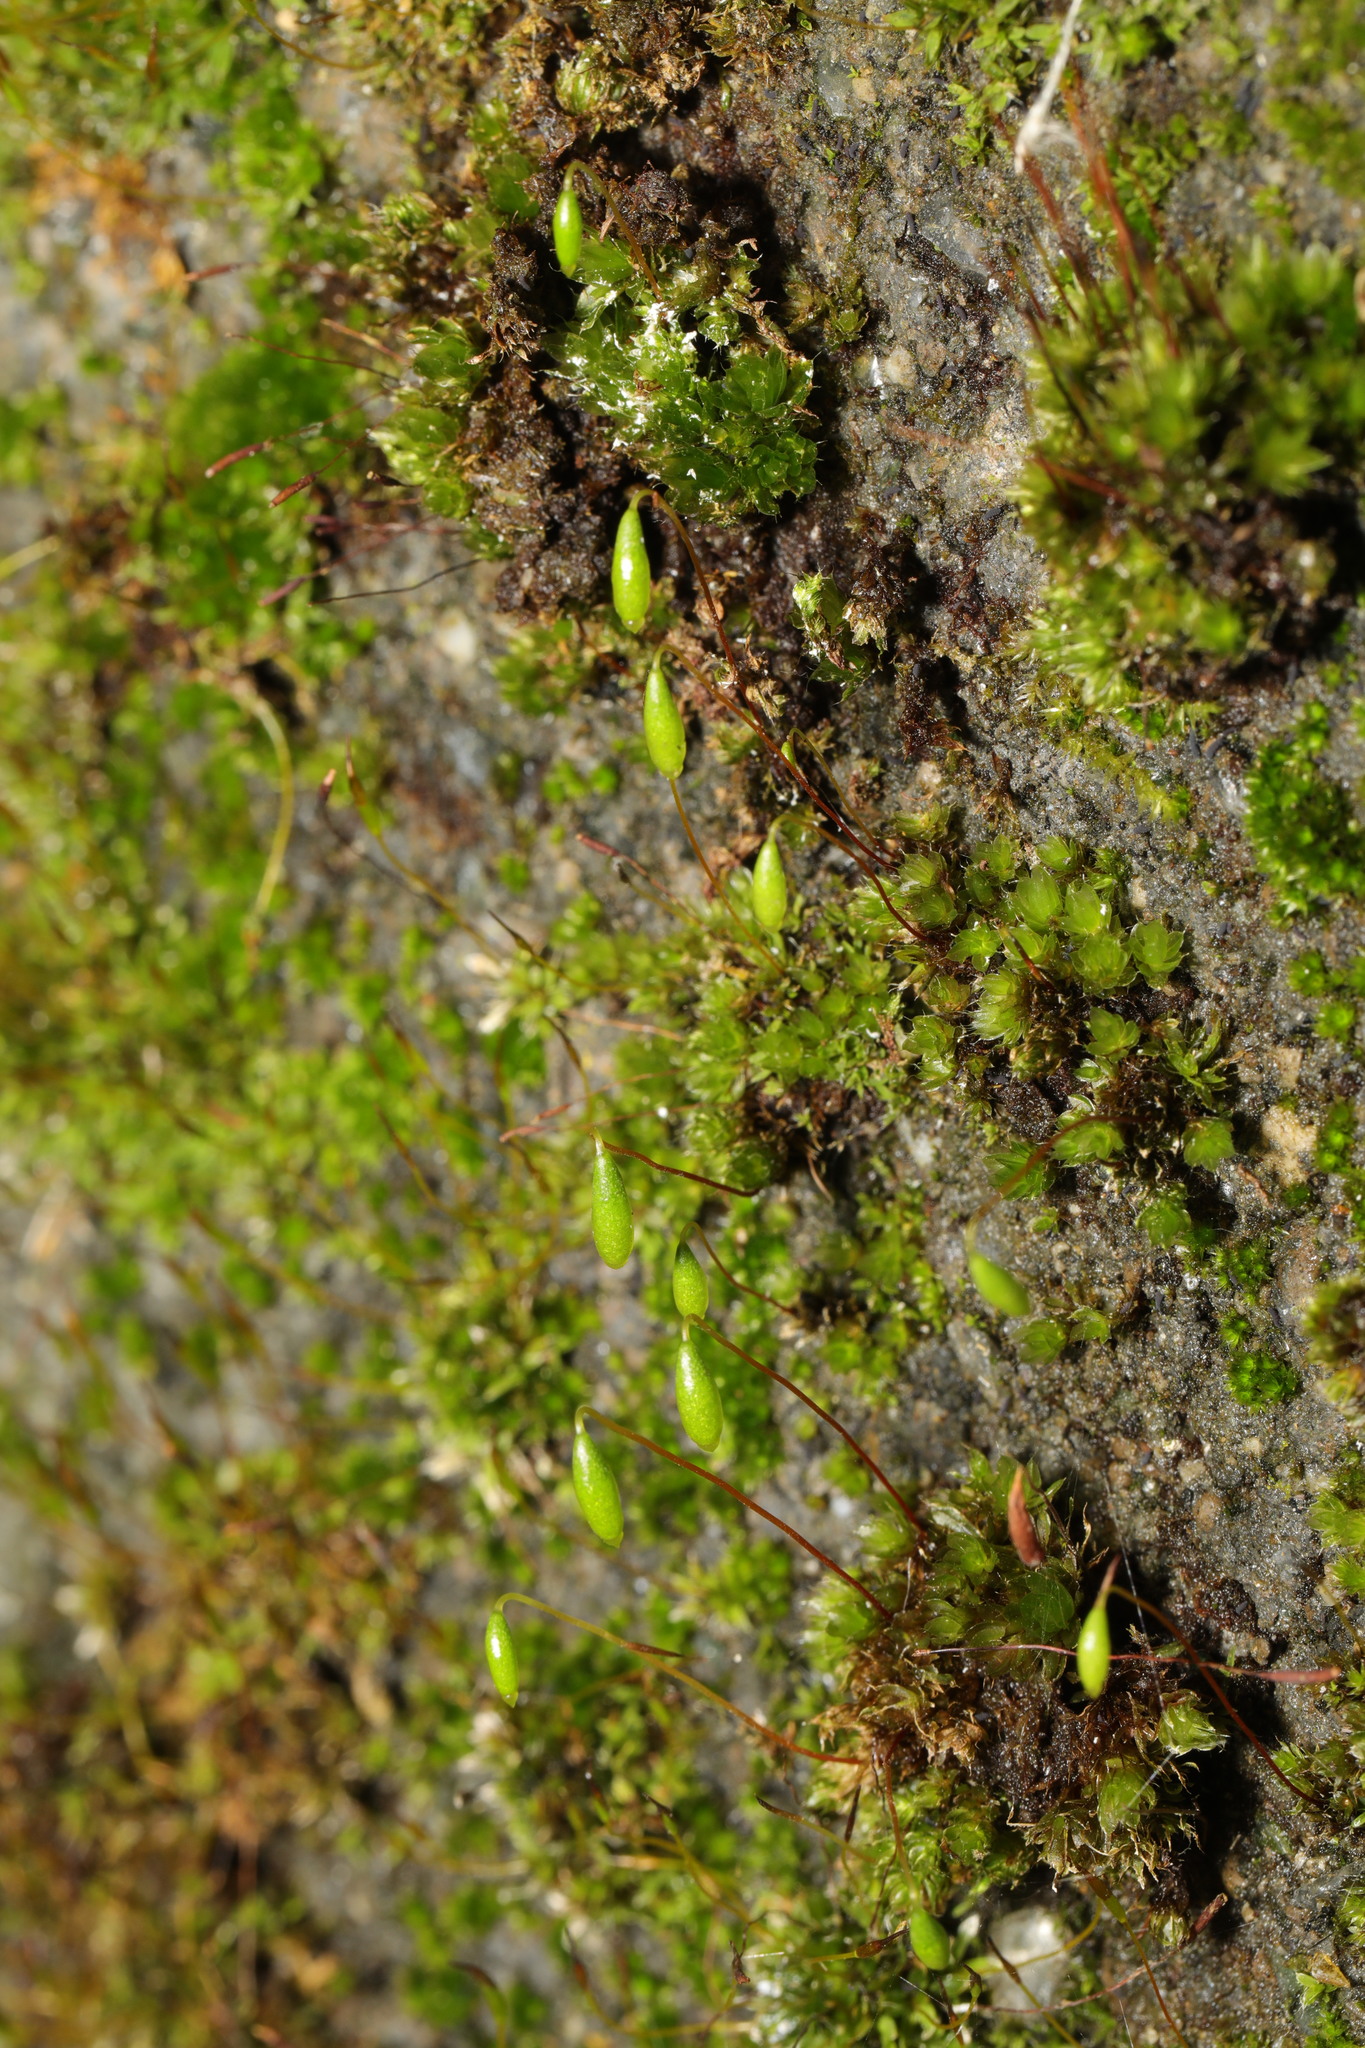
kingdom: Plantae
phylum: Bryophyta
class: Bryopsida
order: Bryales
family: Bryaceae
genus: Rosulabryum
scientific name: Rosulabryum capillare
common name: Capillary thread-moss
